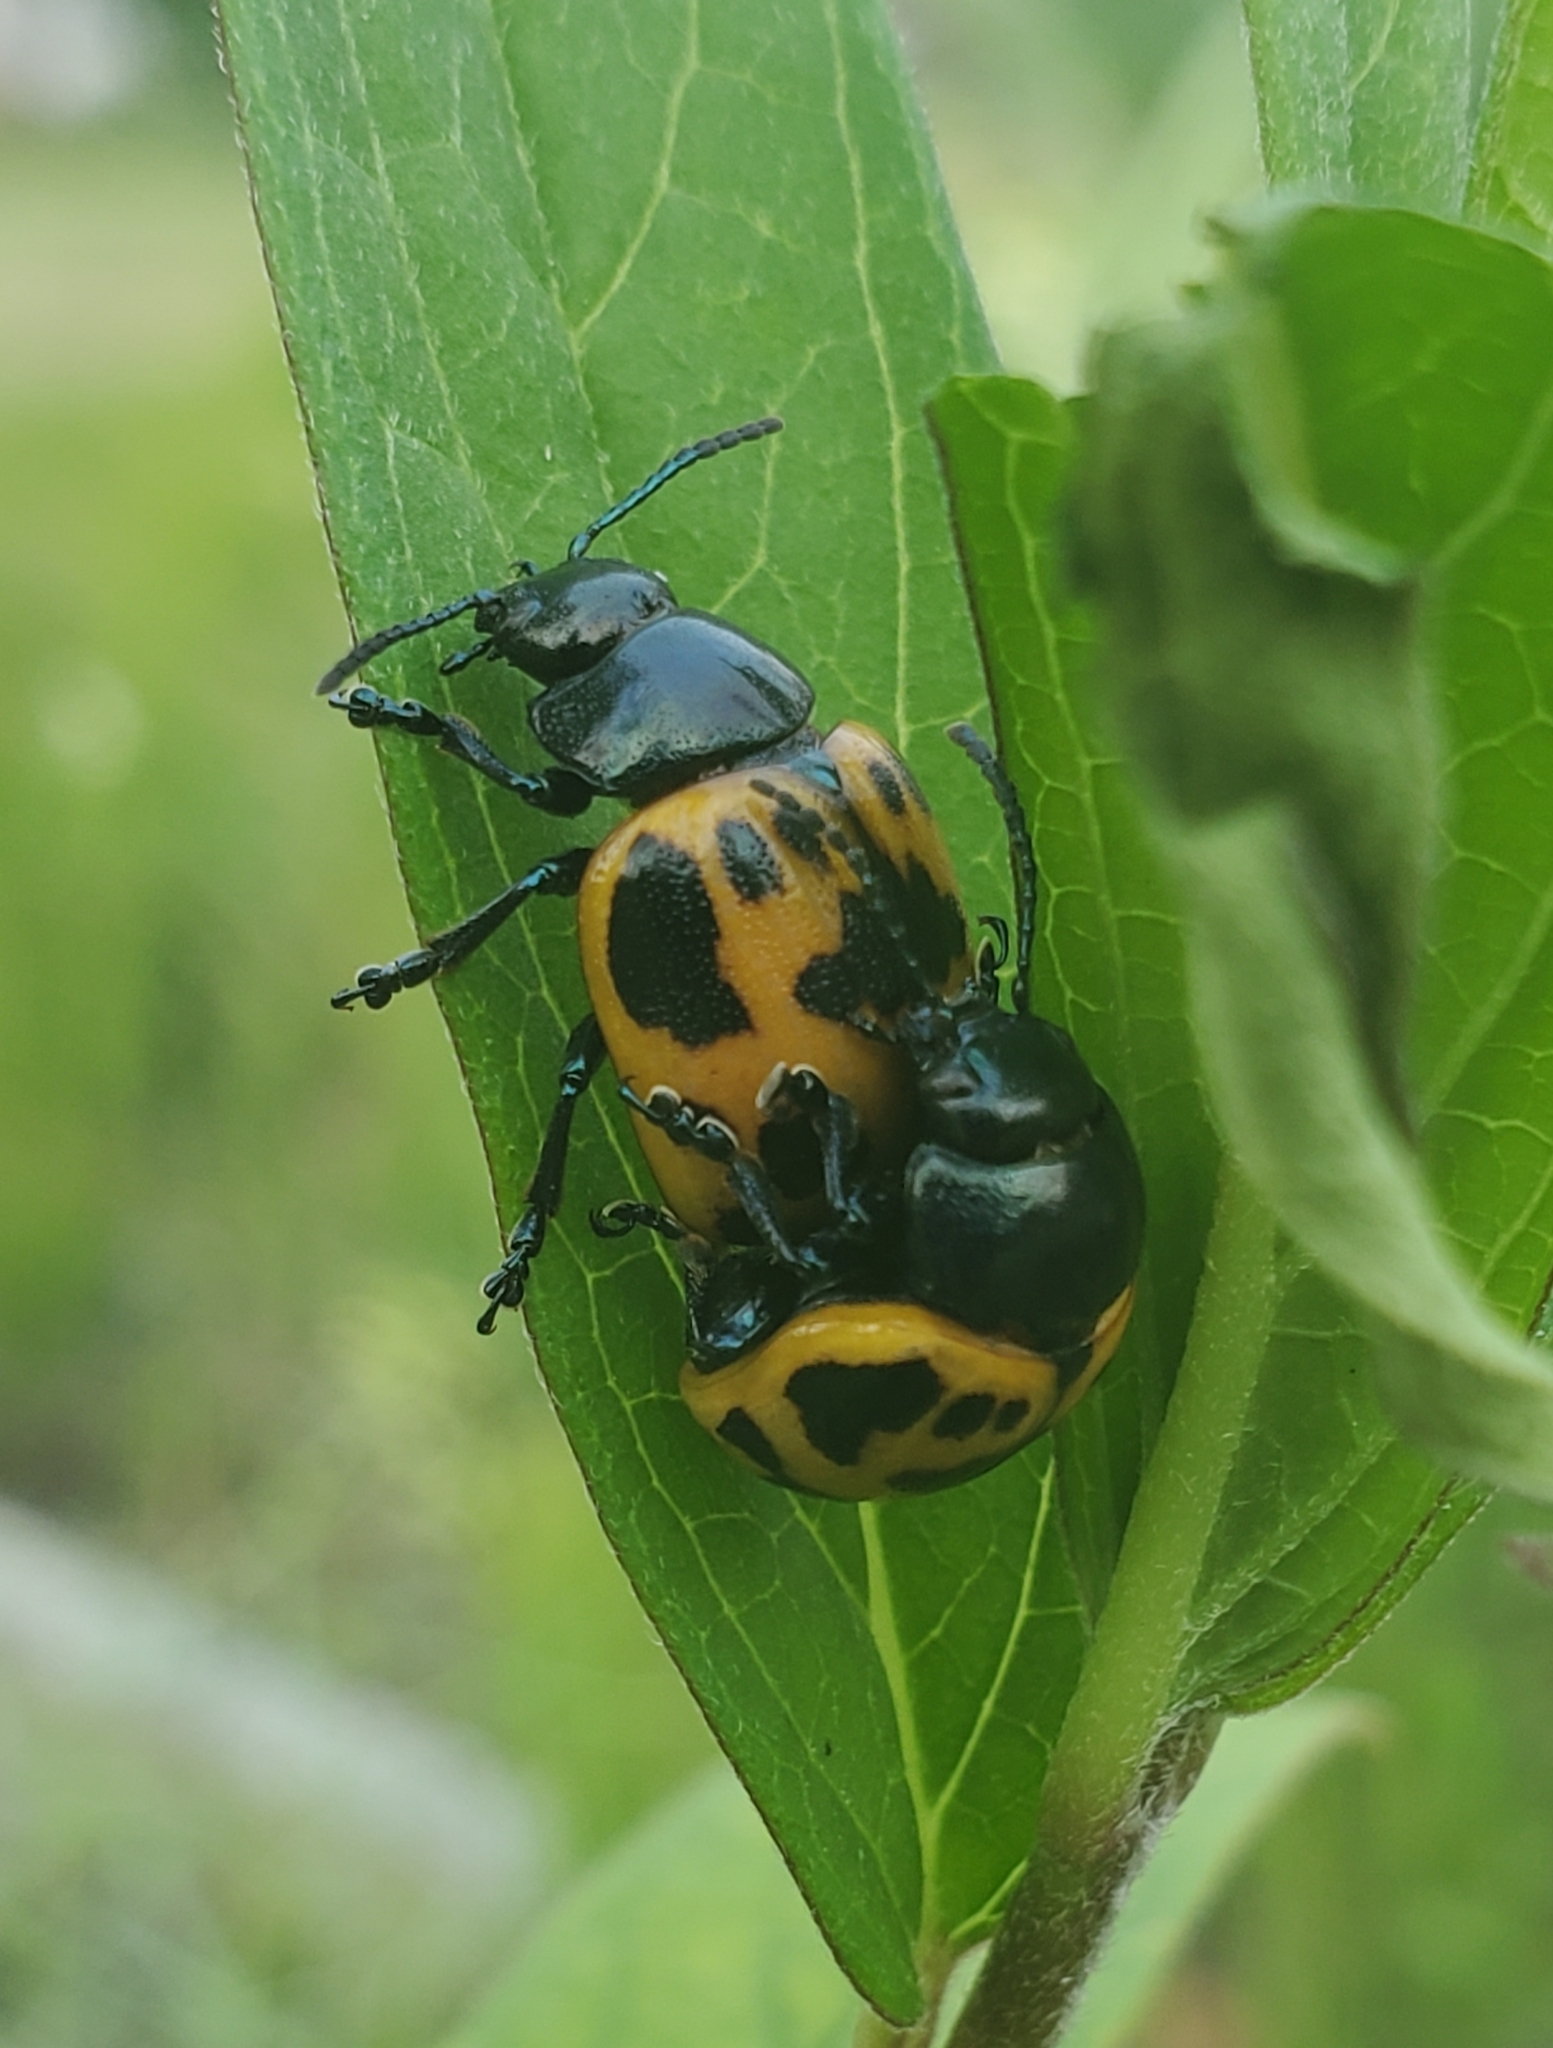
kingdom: Animalia
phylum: Arthropoda
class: Insecta
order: Coleoptera
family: Chrysomelidae
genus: Labidomera
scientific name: Labidomera clivicollis
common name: Swamp milkweed leaf beetle
